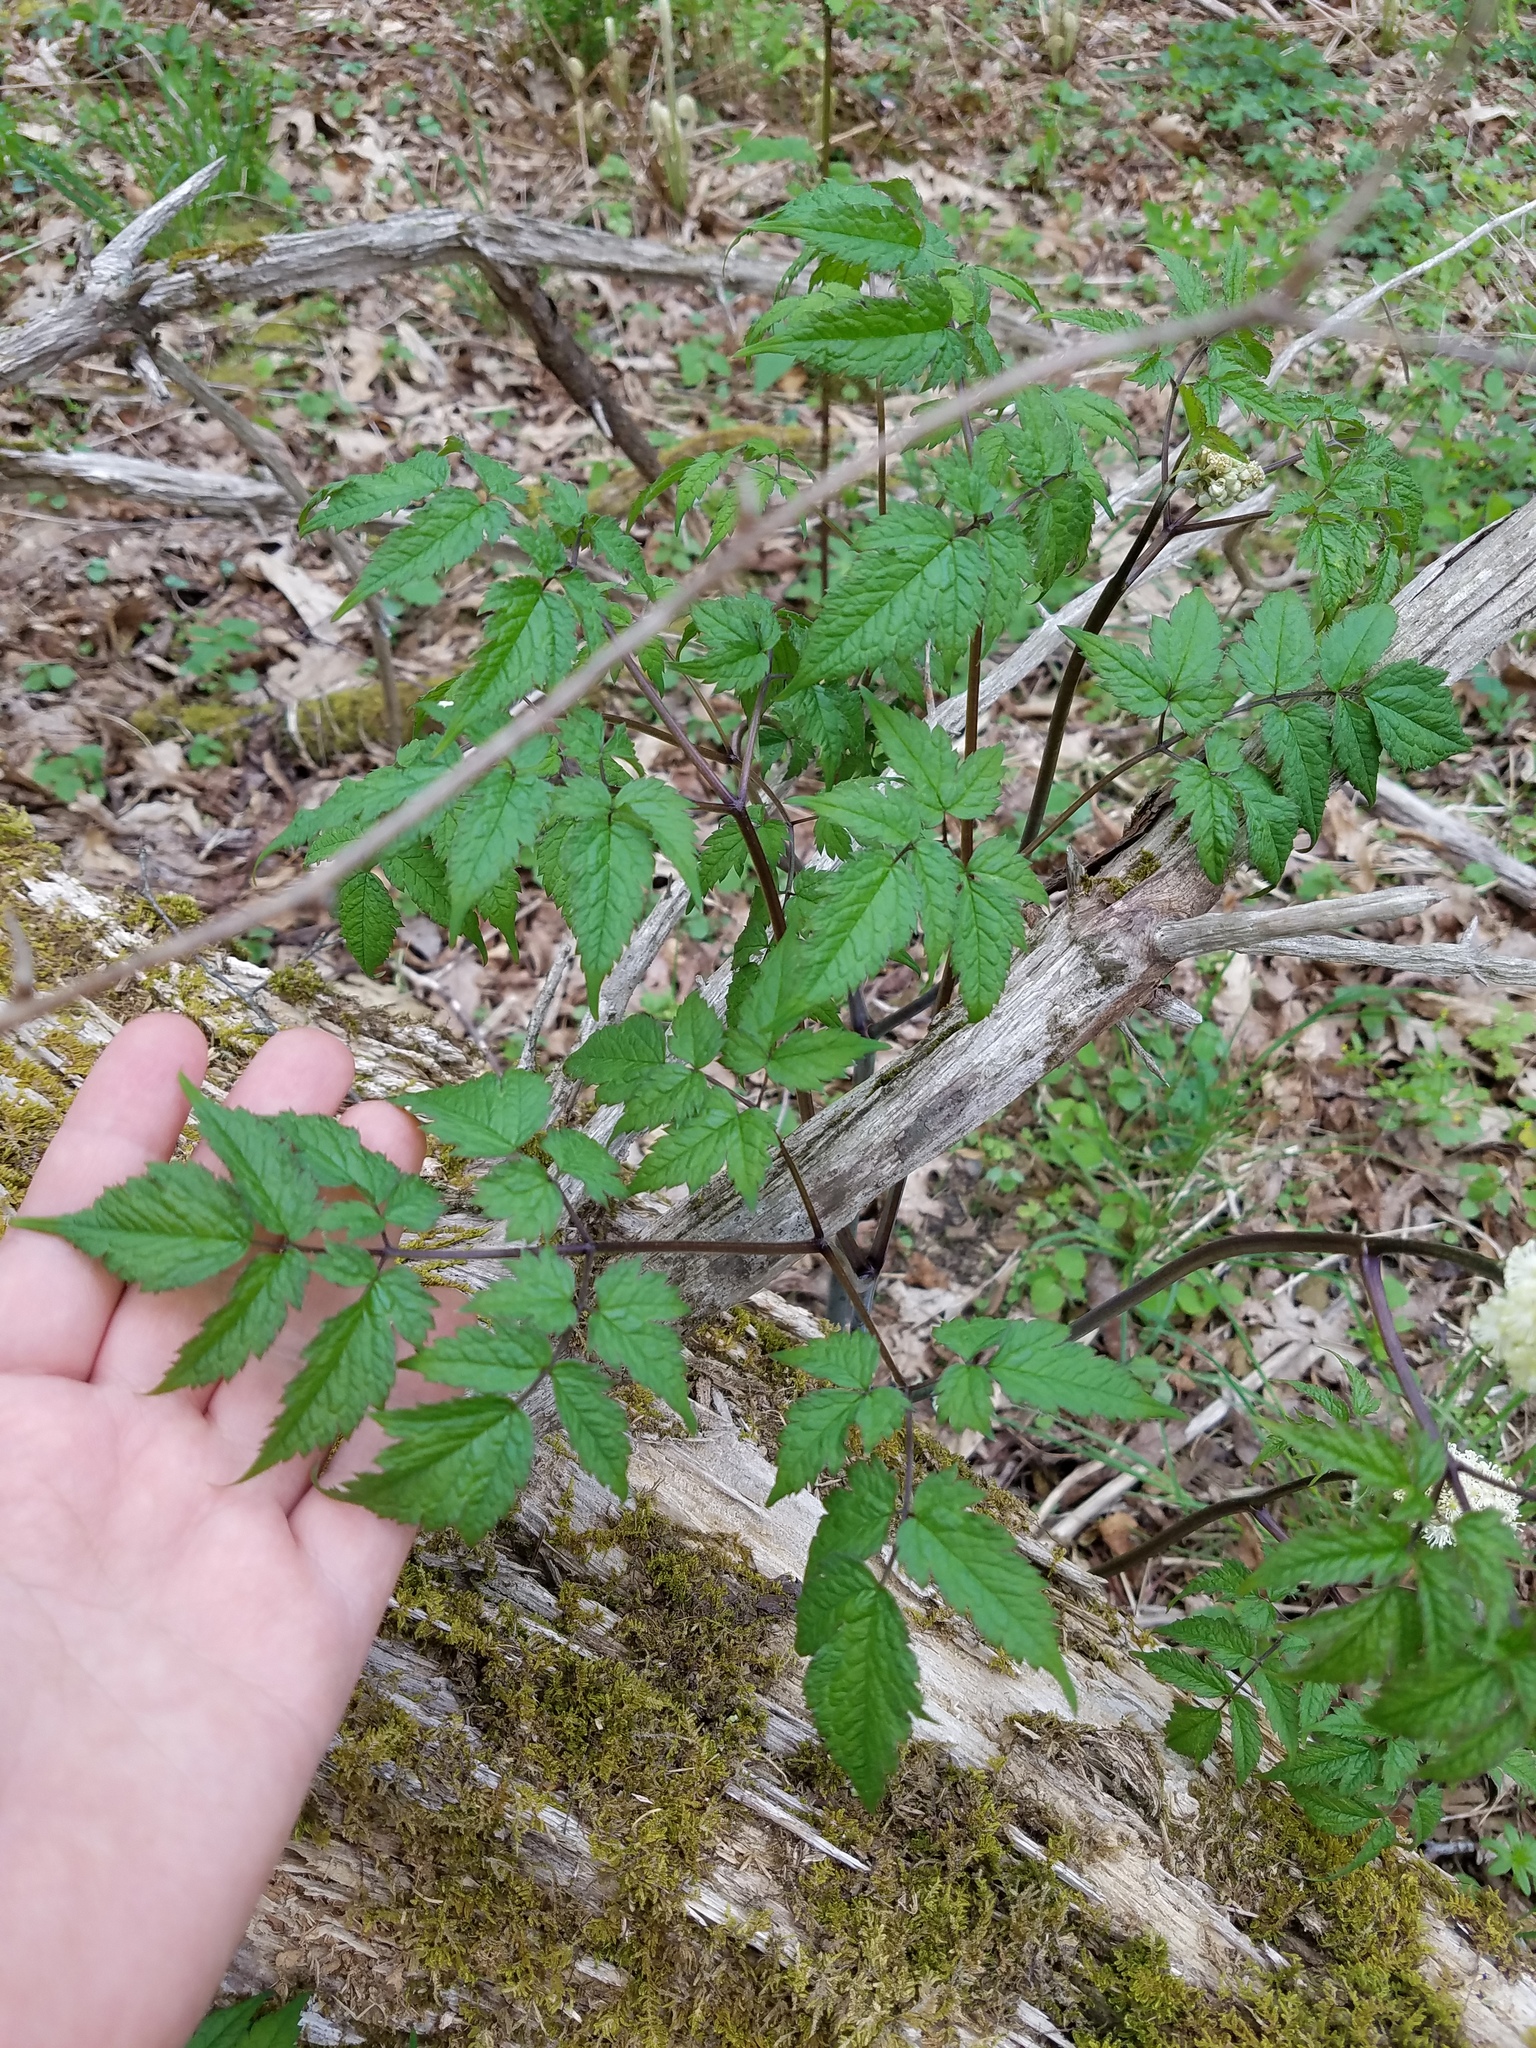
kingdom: Plantae
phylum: Tracheophyta
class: Magnoliopsida
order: Ranunculales
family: Ranunculaceae
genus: Actaea
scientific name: Actaea pachypoda
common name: Doll's-eyes
